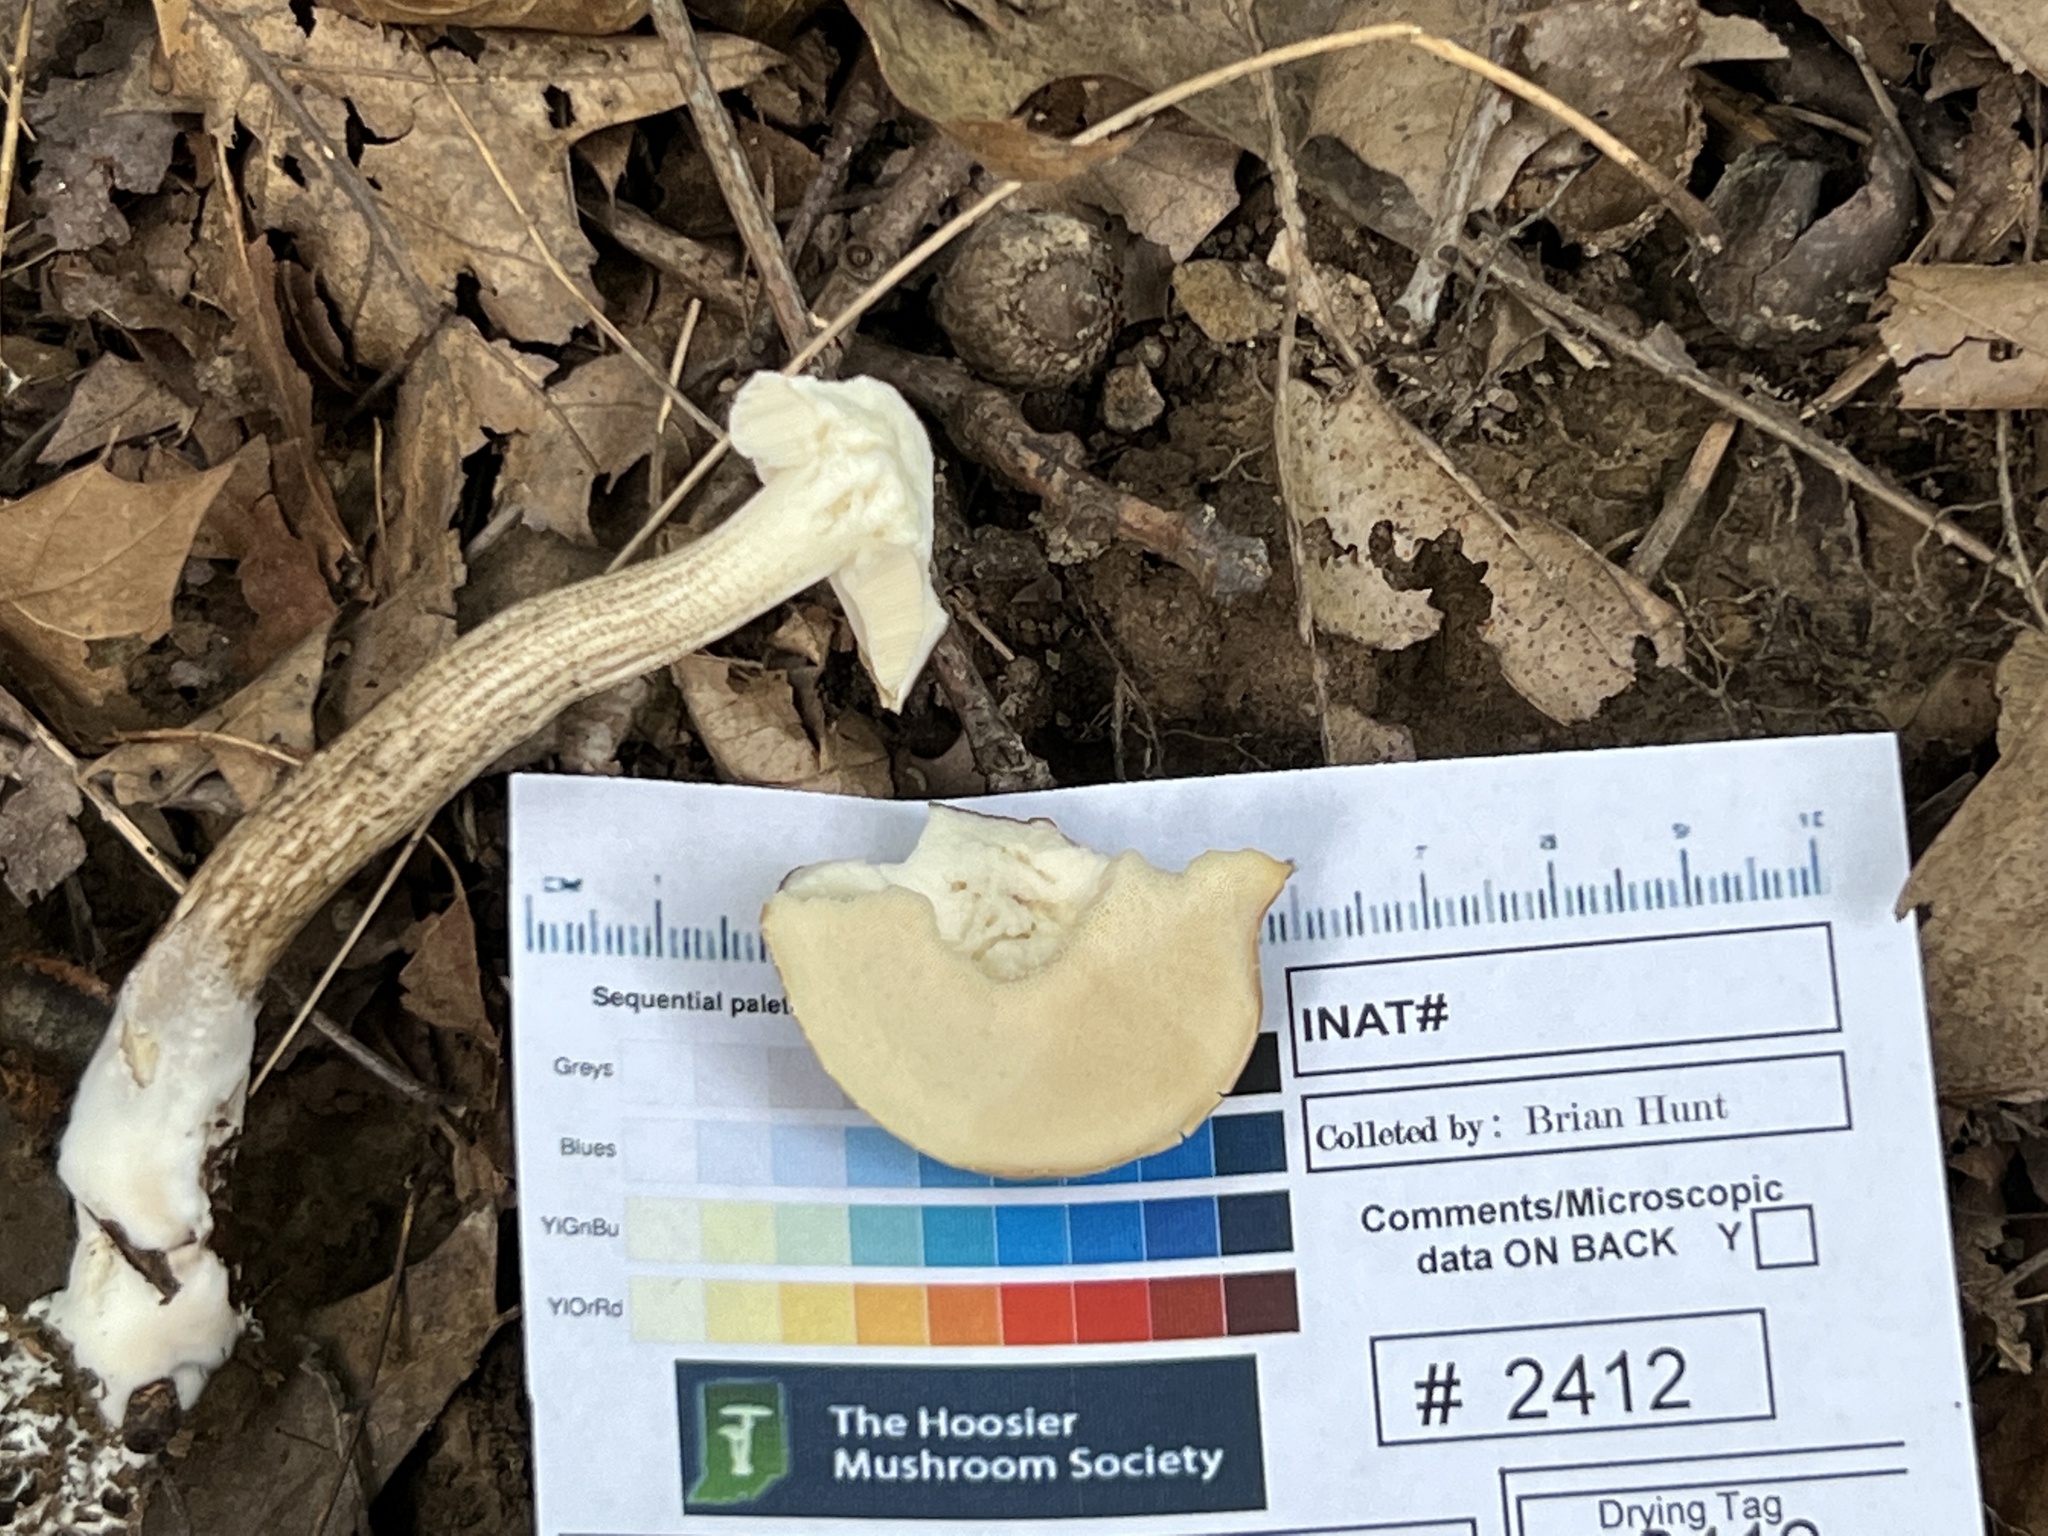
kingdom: Fungi
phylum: Basidiomycota
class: Agaricomycetes
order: Boletales
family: Boletaceae
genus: Leccinellum
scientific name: Leccinellum albellum
